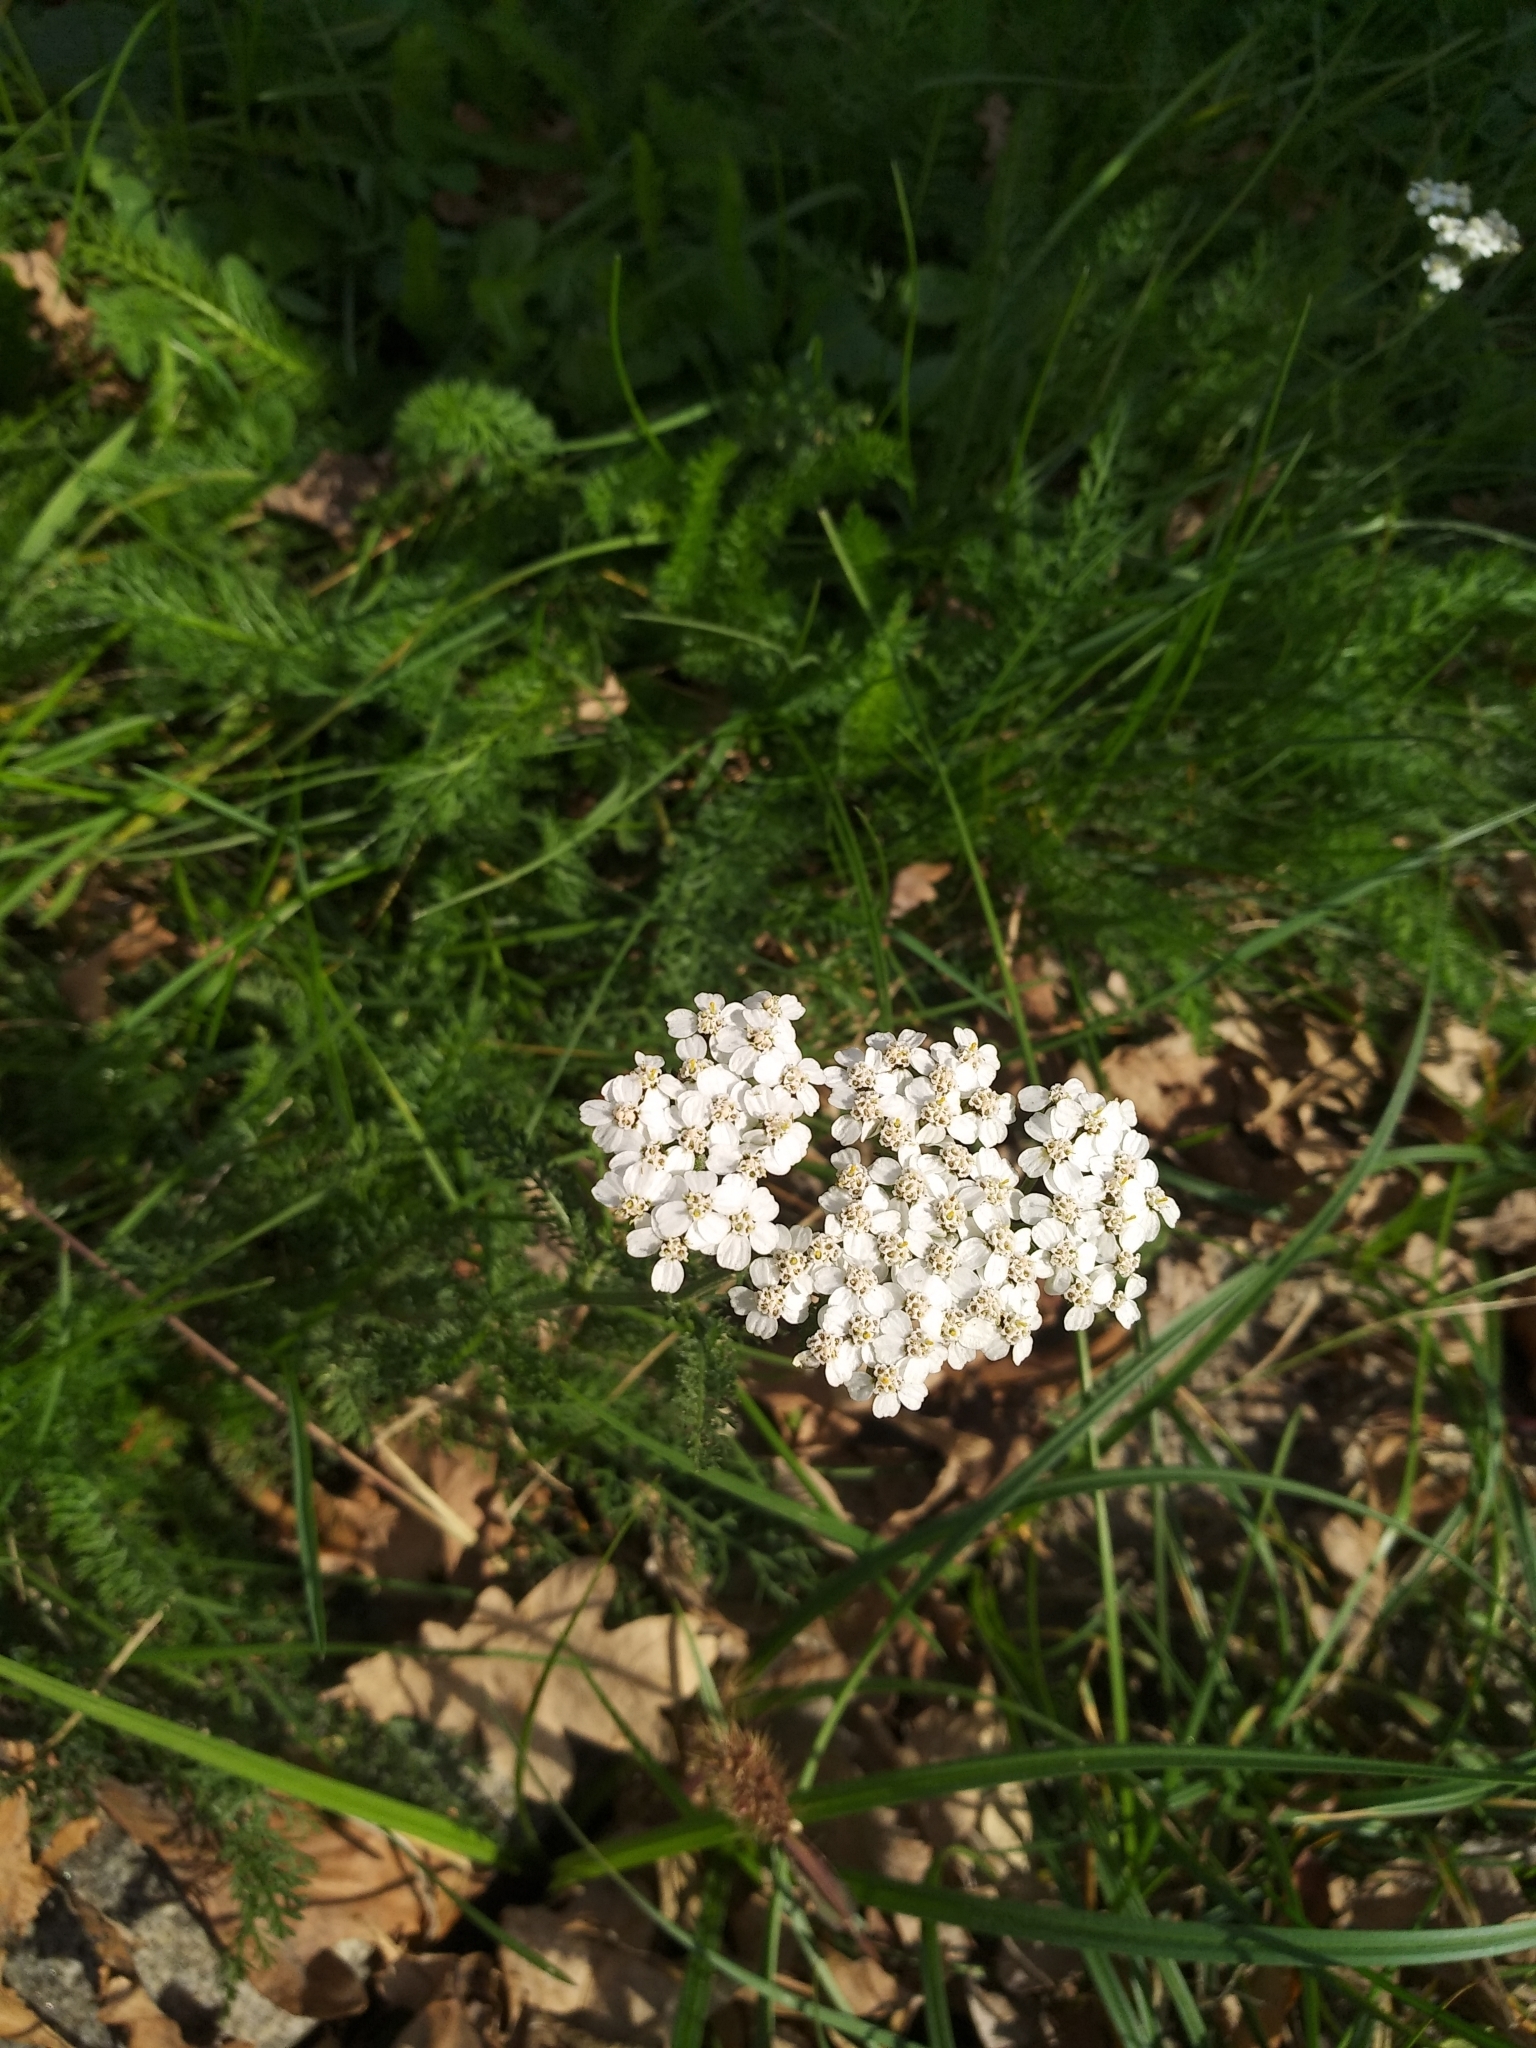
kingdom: Plantae
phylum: Tracheophyta
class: Magnoliopsida
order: Asterales
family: Asteraceae
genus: Achillea
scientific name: Achillea millefolium
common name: Yarrow
